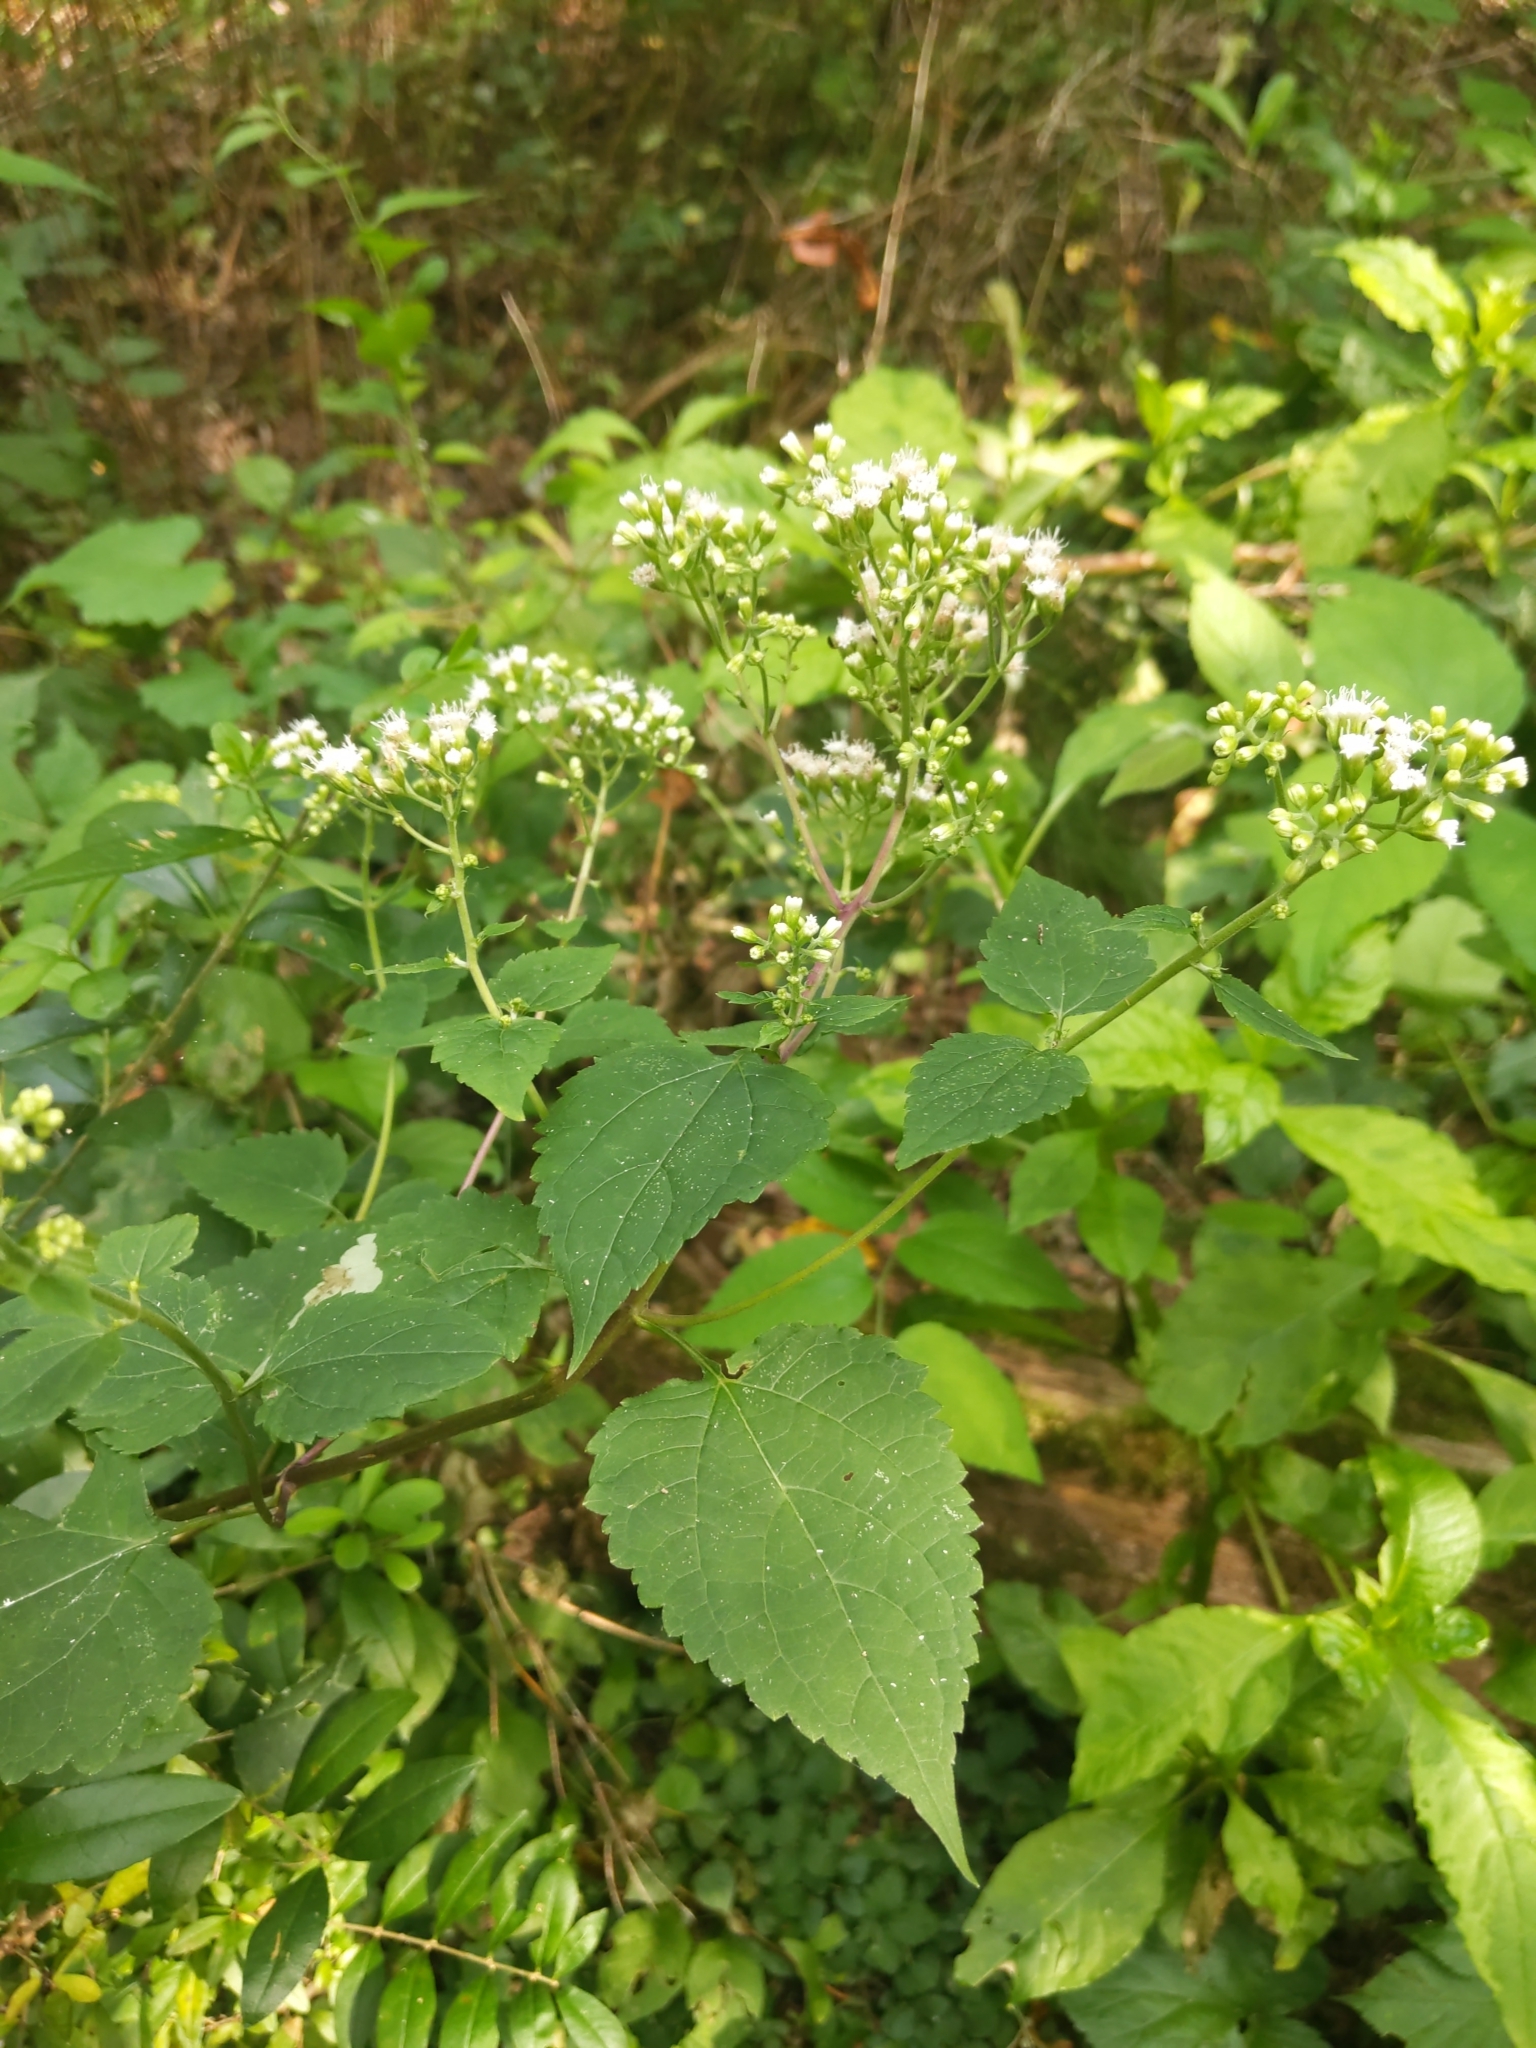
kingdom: Plantae
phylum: Tracheophyta
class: Magnoliopsida
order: Asterales
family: Asteraceae
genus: Ageratina
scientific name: Ageratina altissima
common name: White snakeroot
